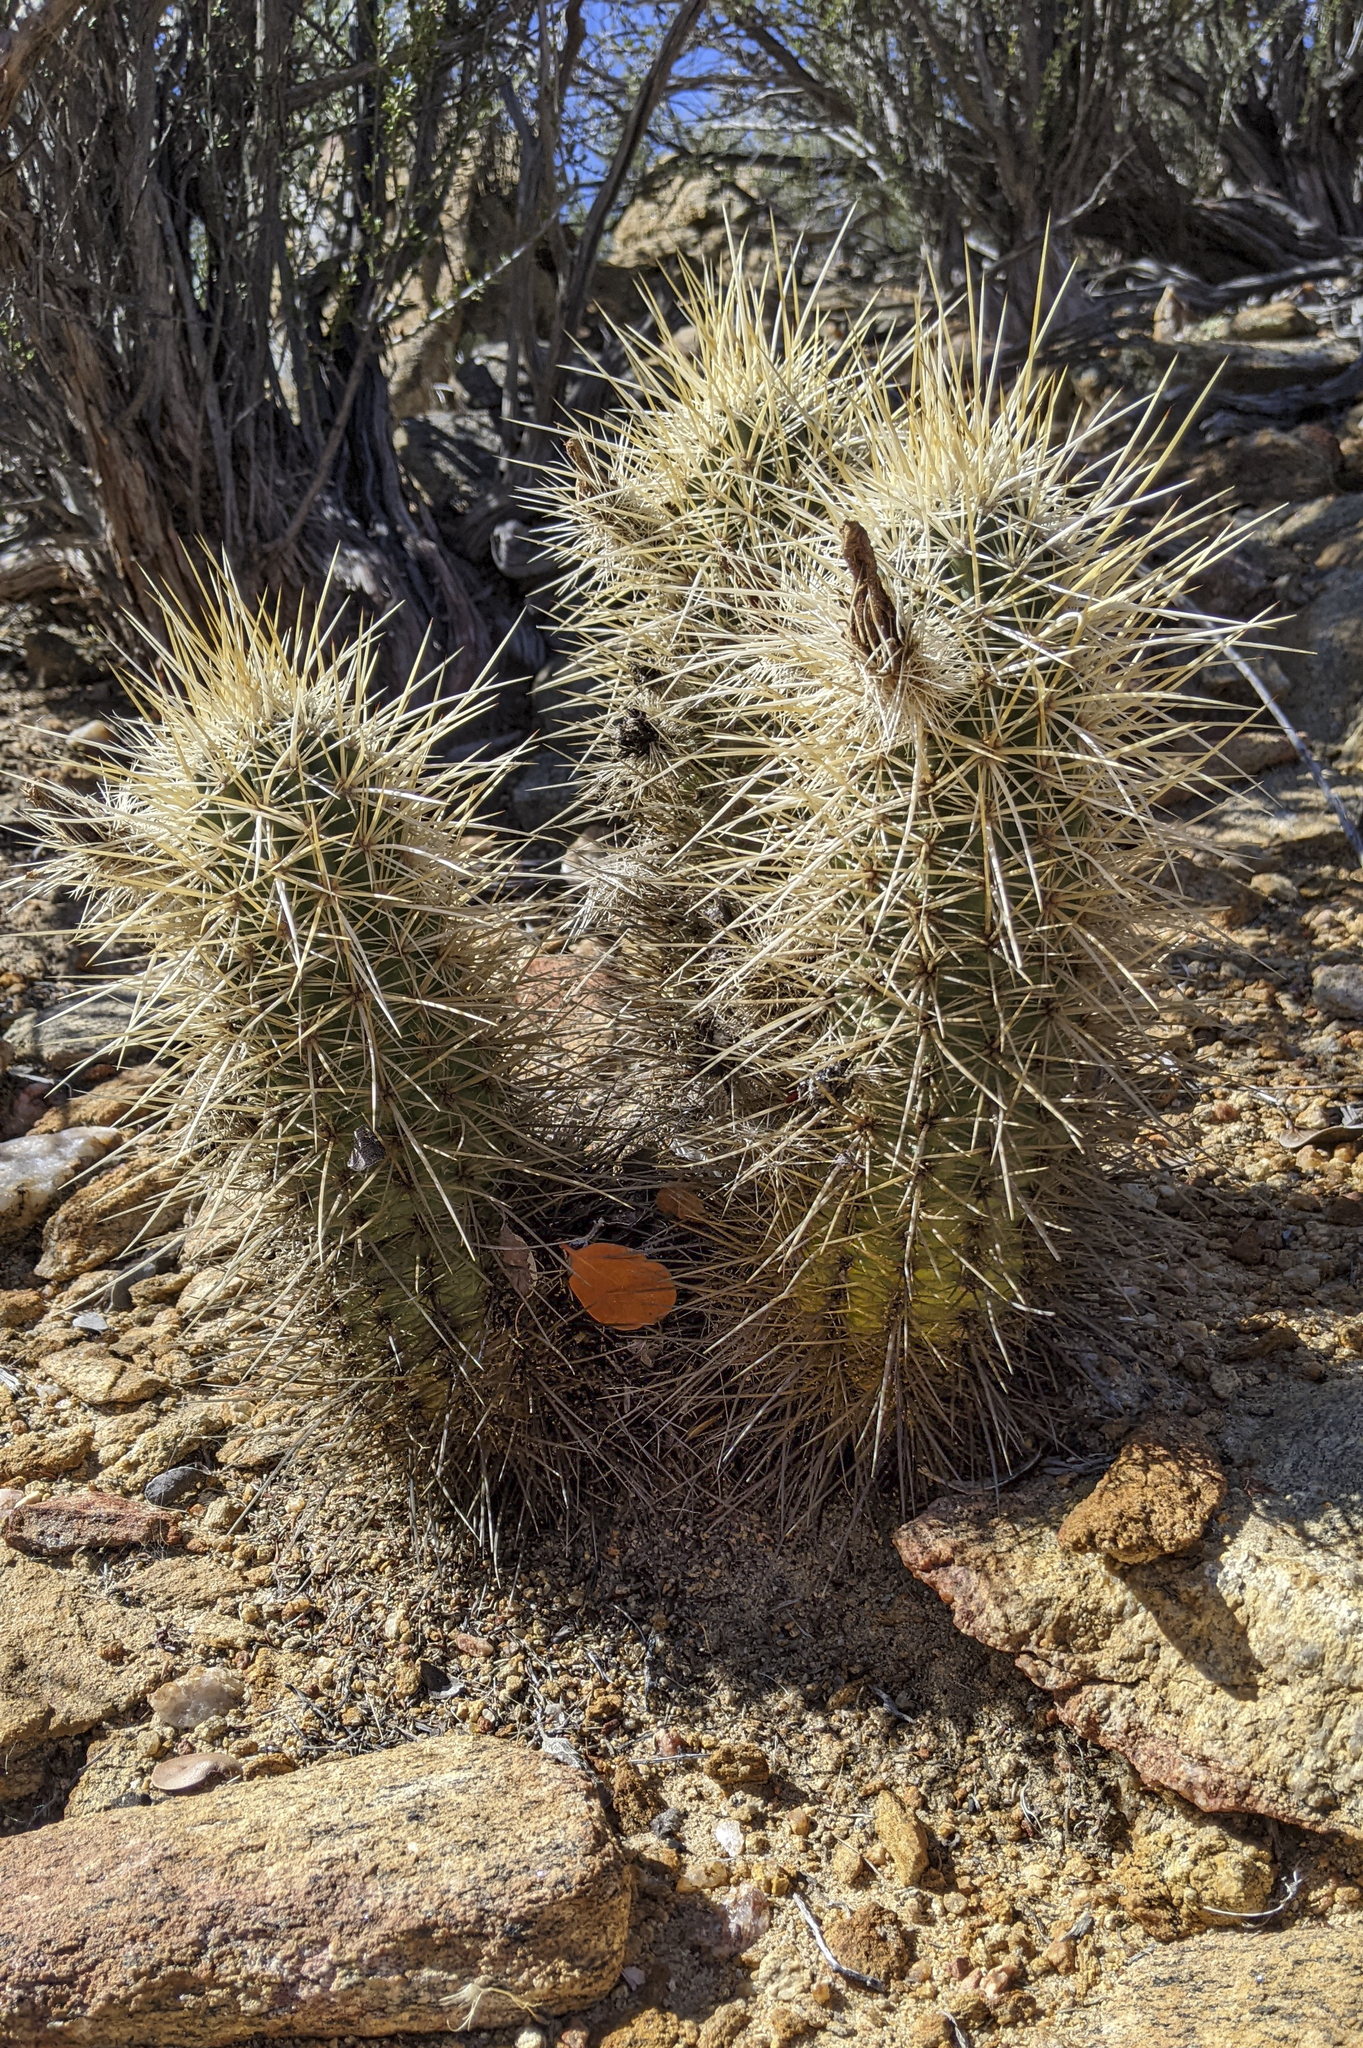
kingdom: Plantae
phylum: Tracheophyta
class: Magnoliopsida
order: Caryophyllales
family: Cactaceae
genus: Echinocereus
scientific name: Echinocereus engelmannii
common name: Engelmann's hedgehog cactus
